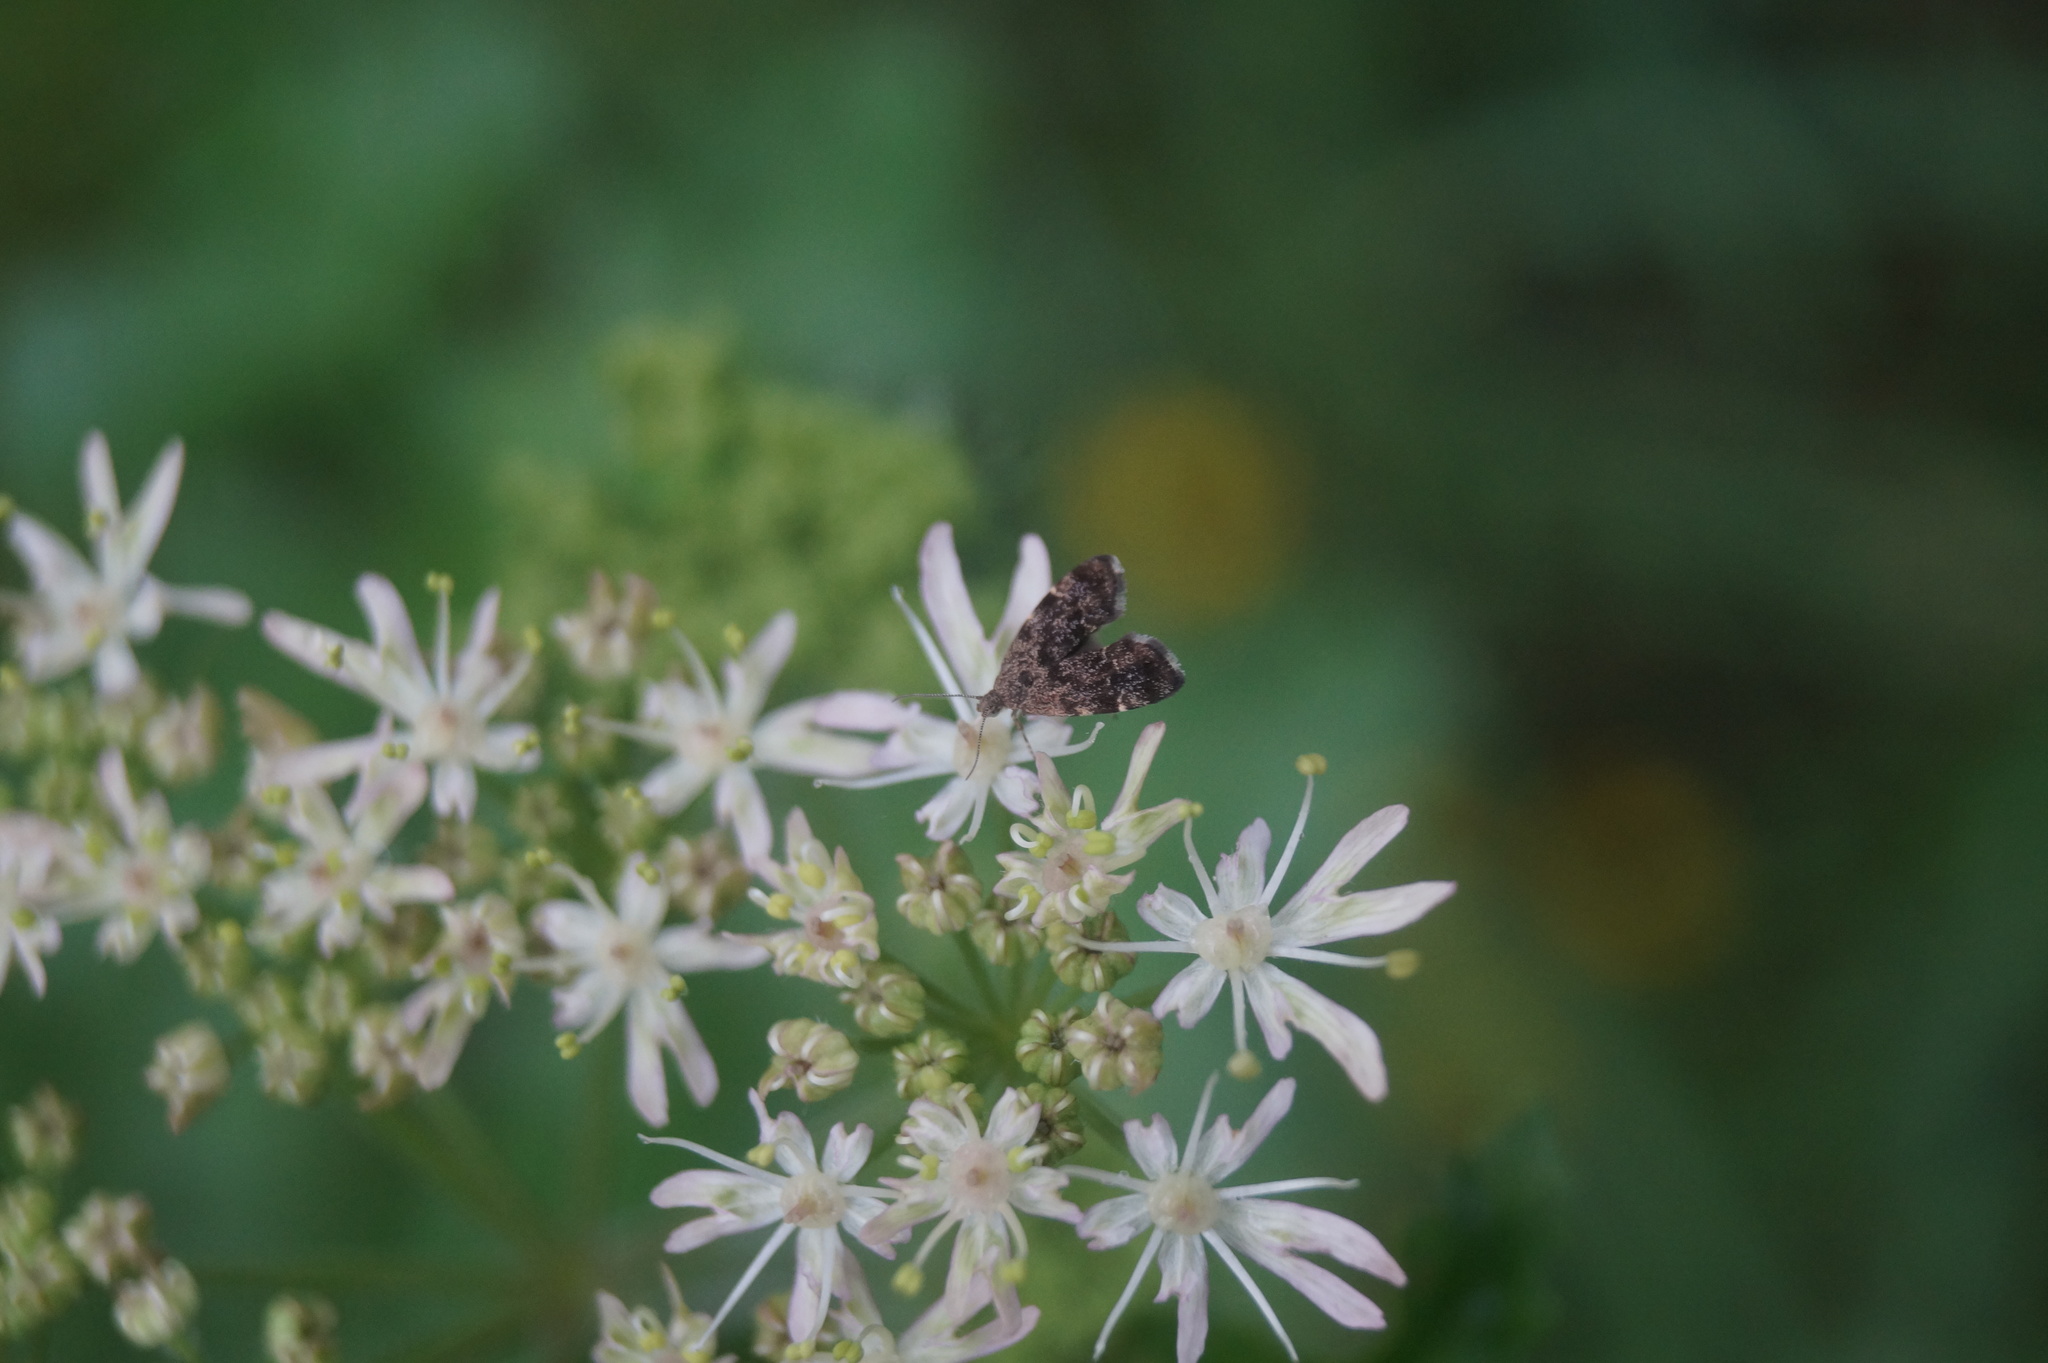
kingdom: Animalia
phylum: Arthropoda
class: Insecta
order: Lepidoptera
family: Choreutidae
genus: Anthophila
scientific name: Anthophila fabriciana
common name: Nettle-tap
